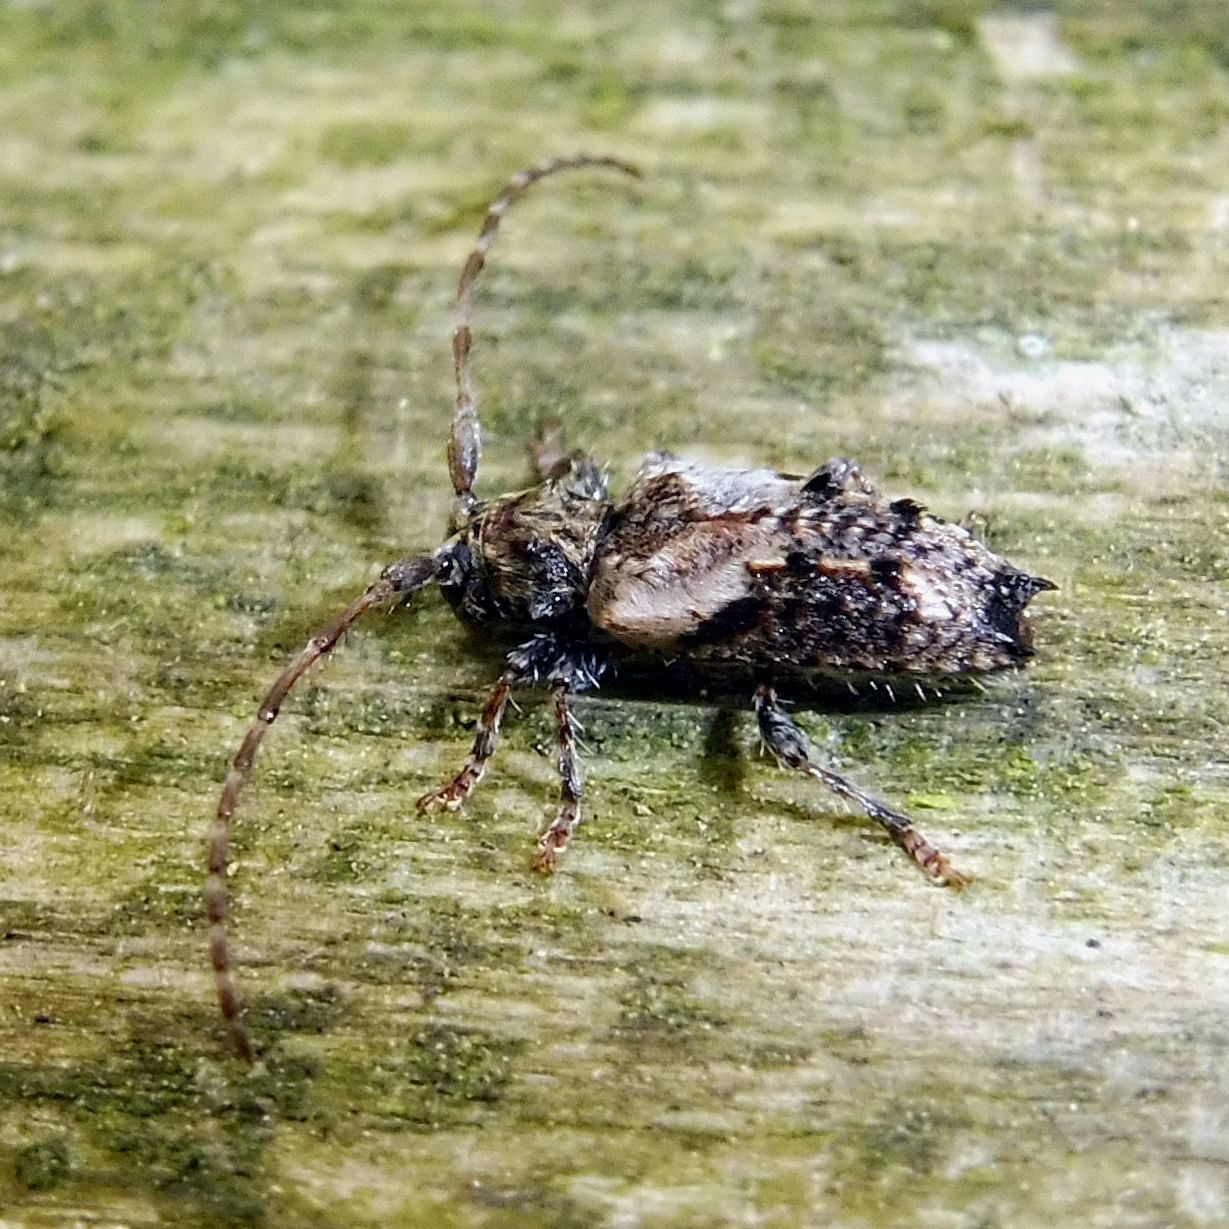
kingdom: Animalia
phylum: Arthropoda
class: Insecta
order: Coleoptera
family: Cerambycidae
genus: Pogonocherus
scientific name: Pogonocherus hispidus
